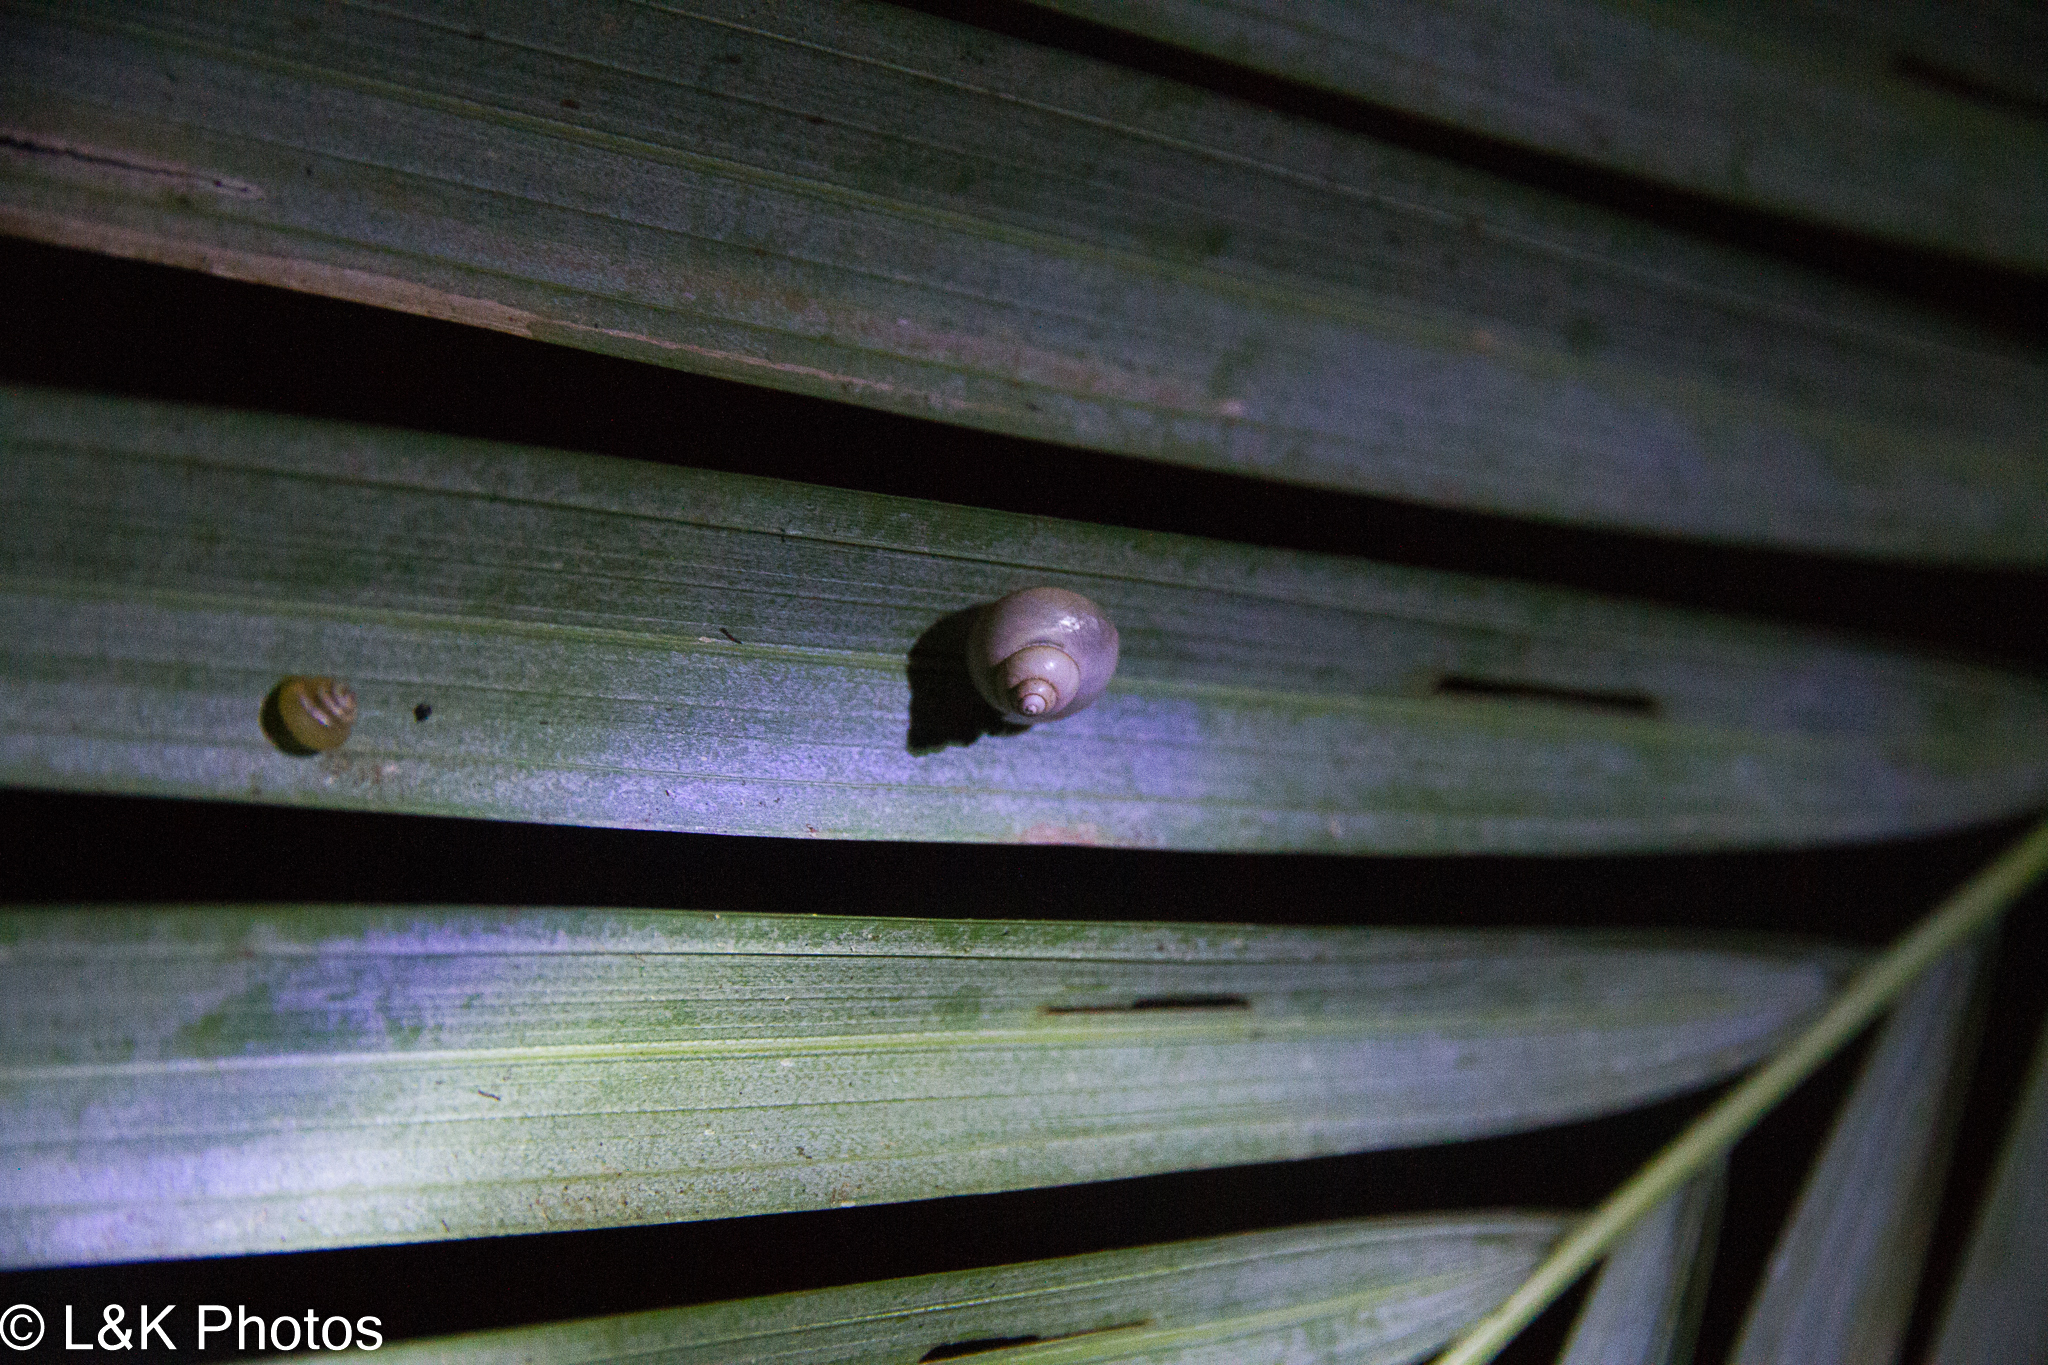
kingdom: Animalia
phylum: Mollusca
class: Gastropoda
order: Architaenioglossa
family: Cyclophoridae
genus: Leptopoma
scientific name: Leptopoma perlucidum
